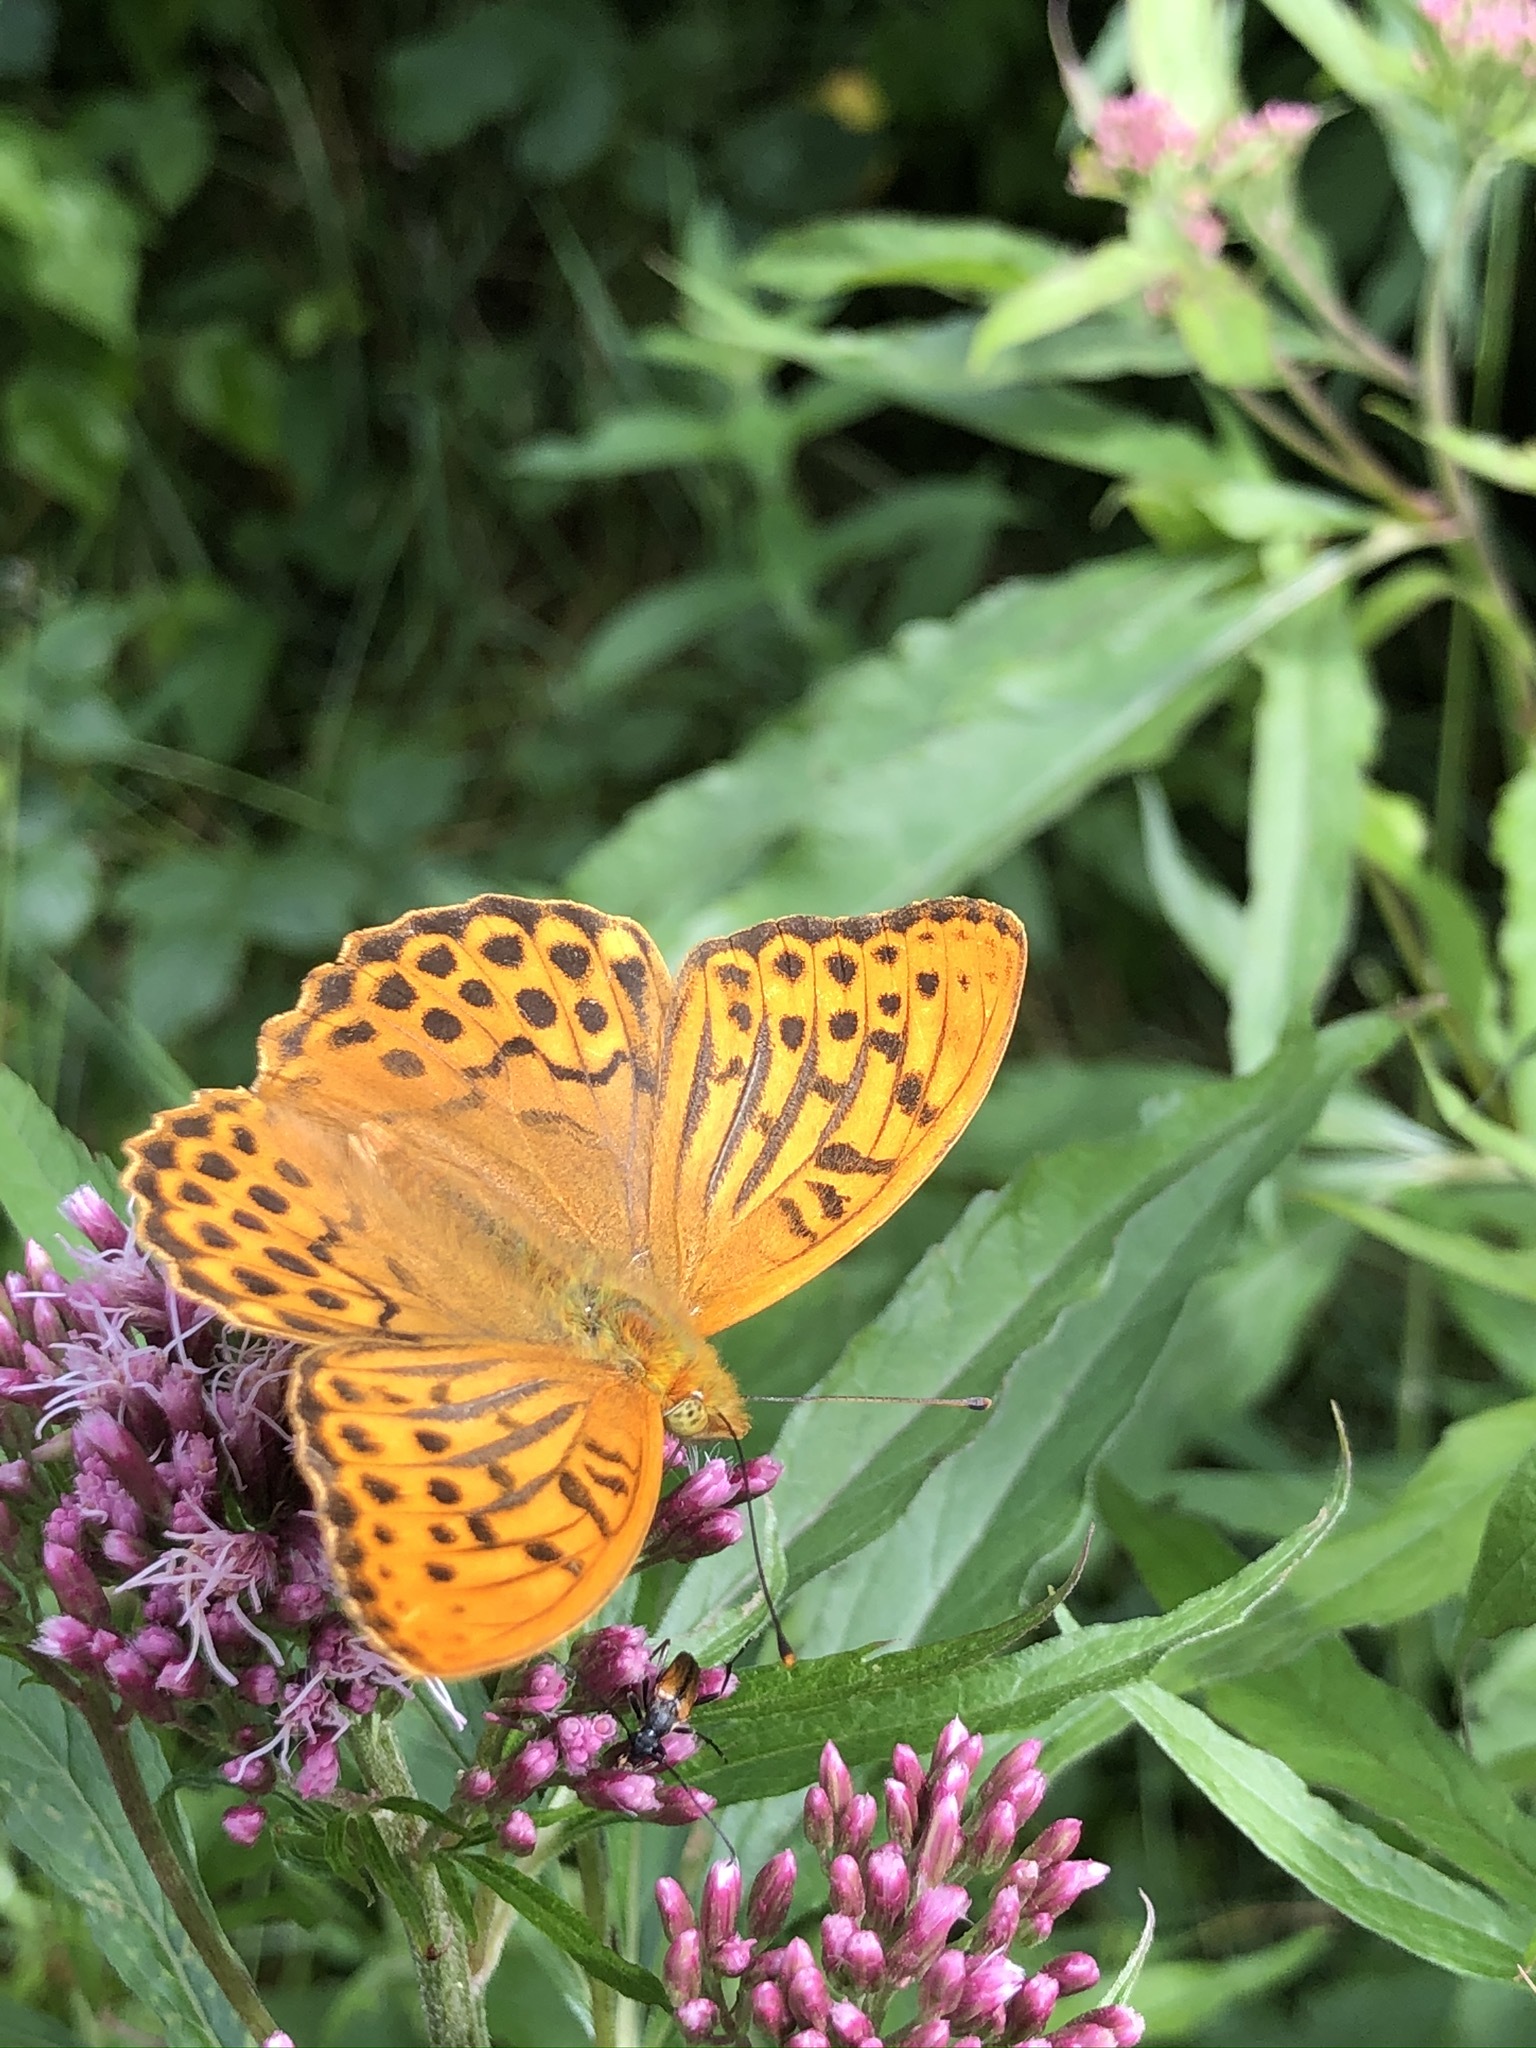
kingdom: Animalia
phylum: Arthropoda
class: Insecta
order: Lepidoptera
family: Nymphalidae
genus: Argynnis
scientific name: Argynnis paphia
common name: Silver-washed fritillary
